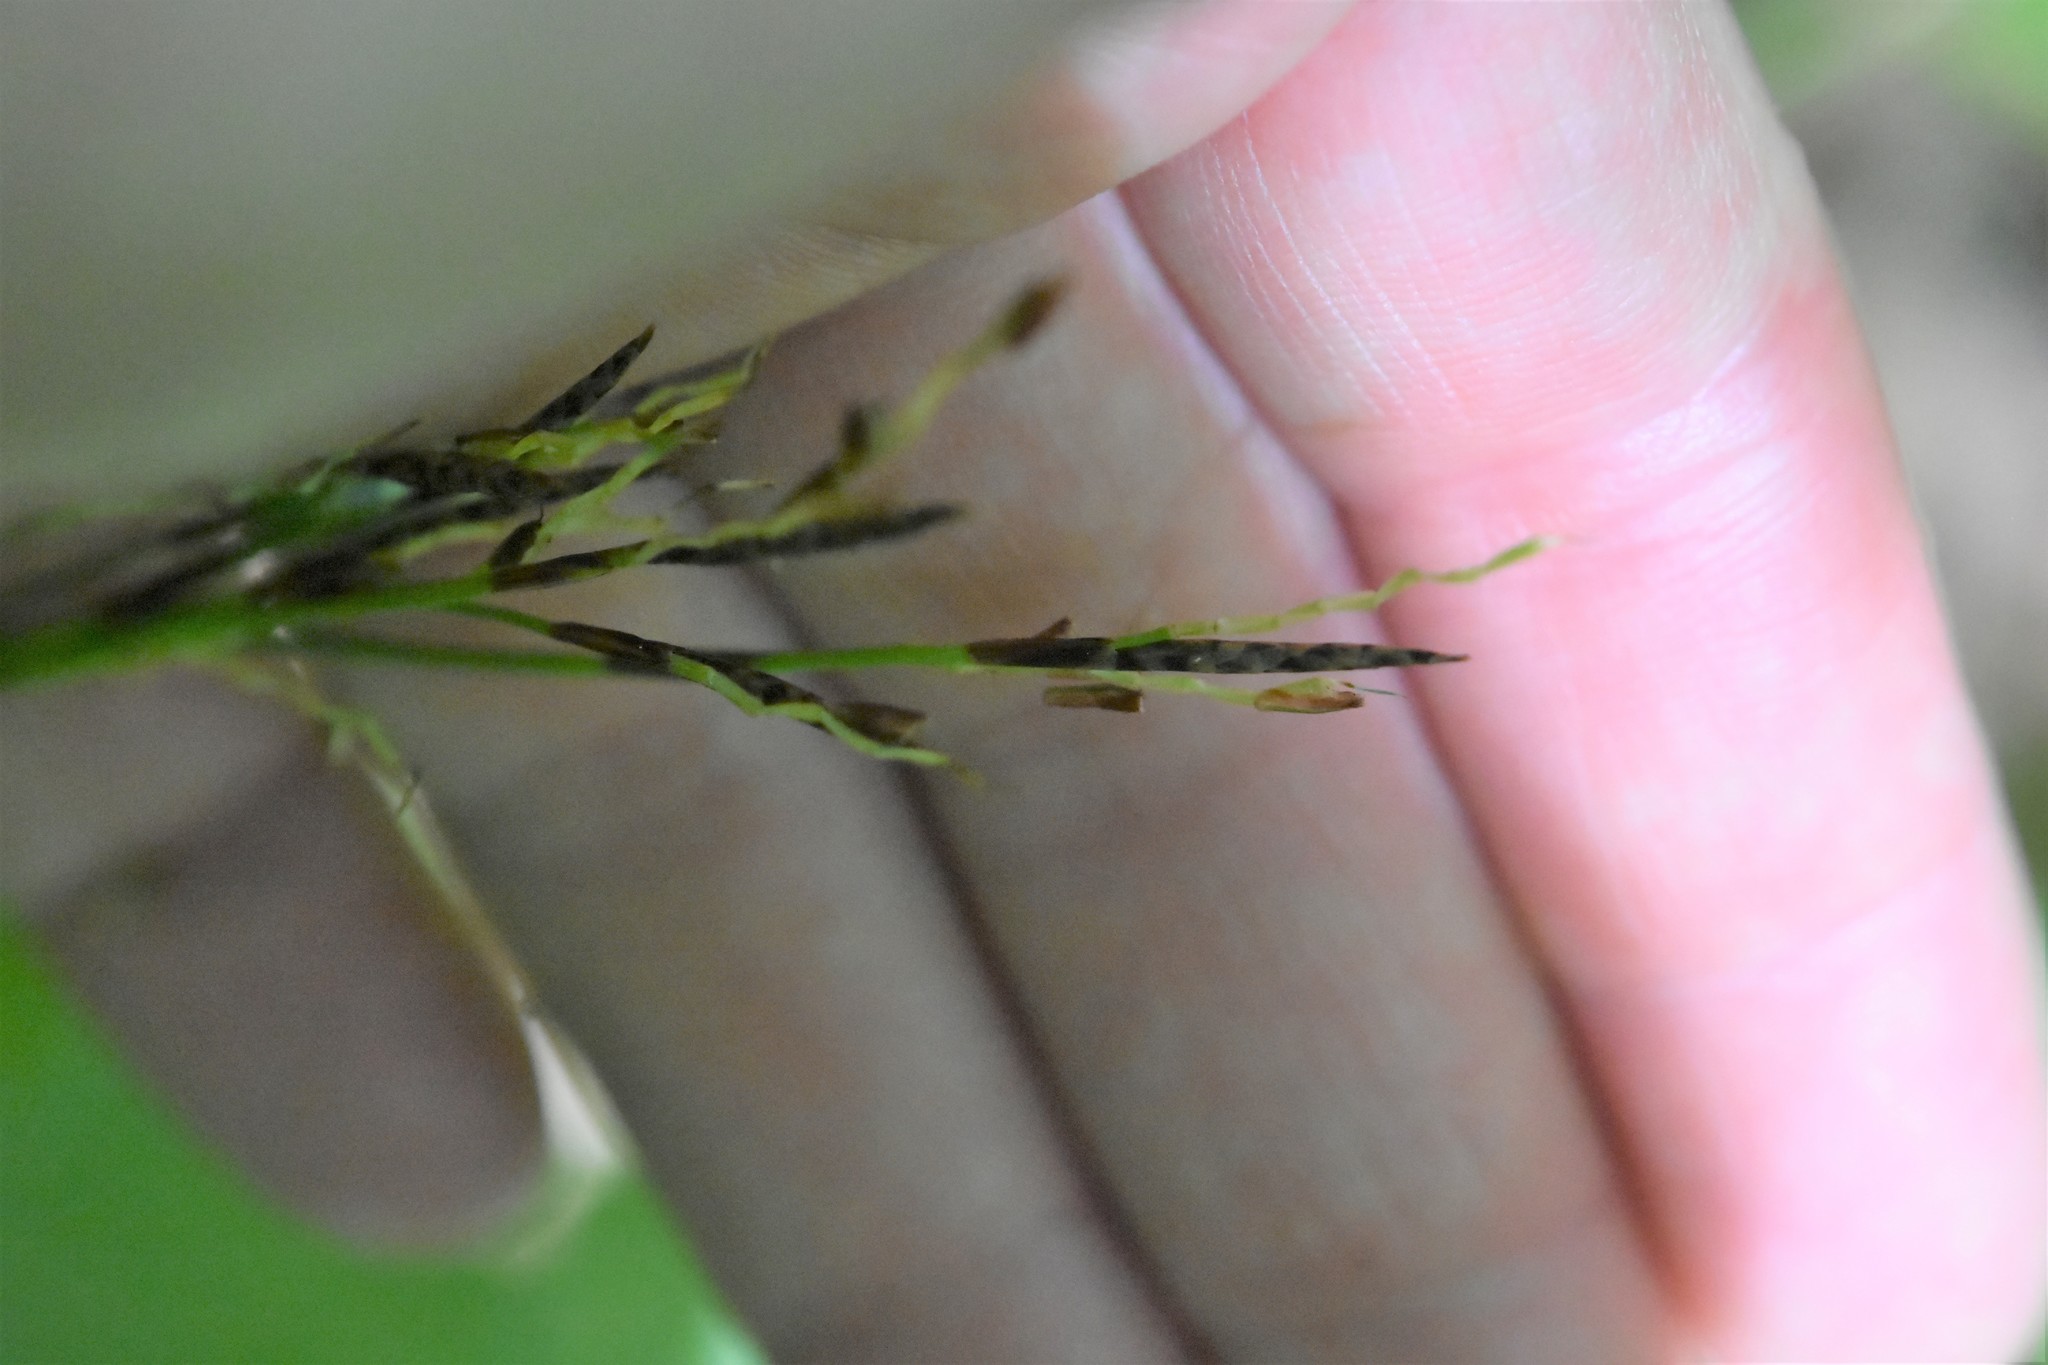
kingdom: Plantae
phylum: Tracheophyta
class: Liliopsida
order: Poales
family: Cyperaceae
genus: Carex
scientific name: Carex digitata
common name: Fingered sedge
